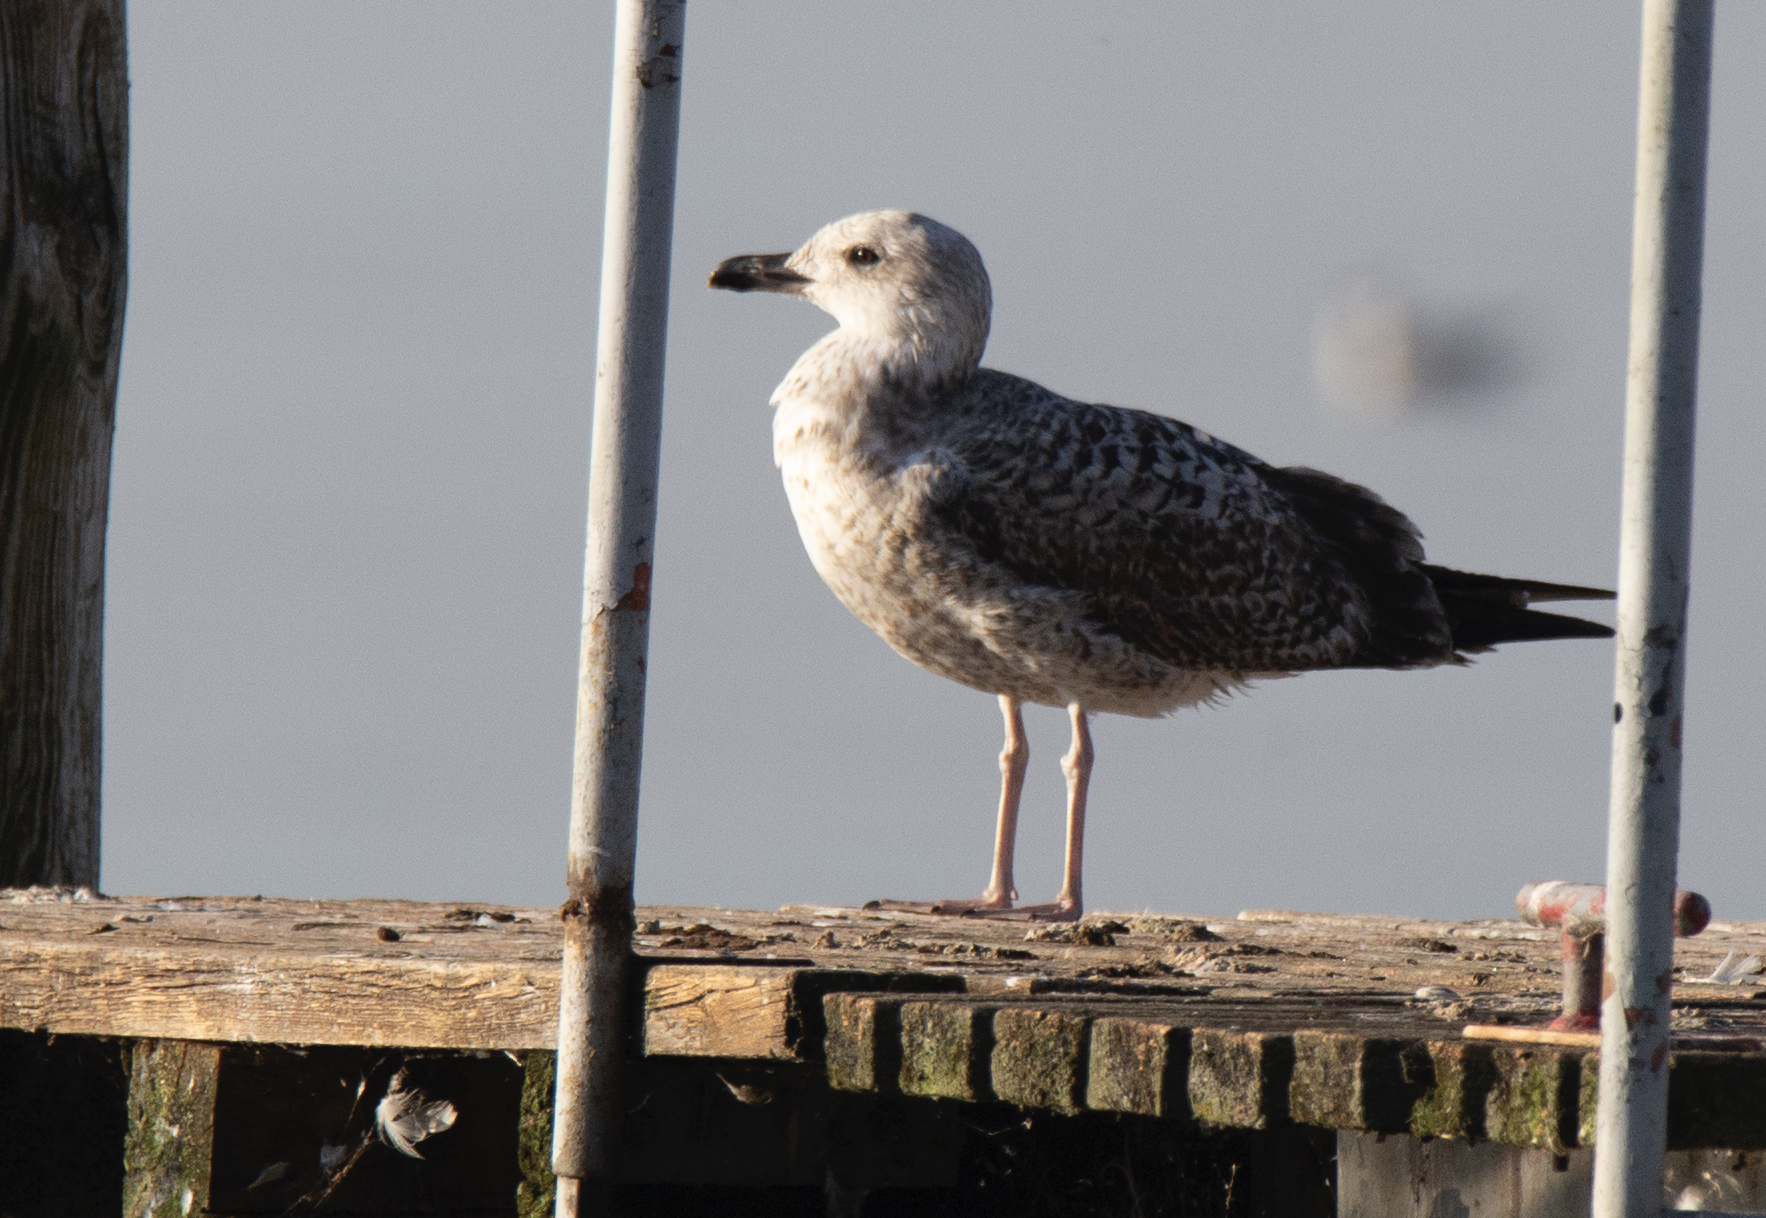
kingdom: Animalia
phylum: Chordata
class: Aves
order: Charadriiformes
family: Laridae
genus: Larus
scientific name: Larus michahellis
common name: Yellow-legged gull
